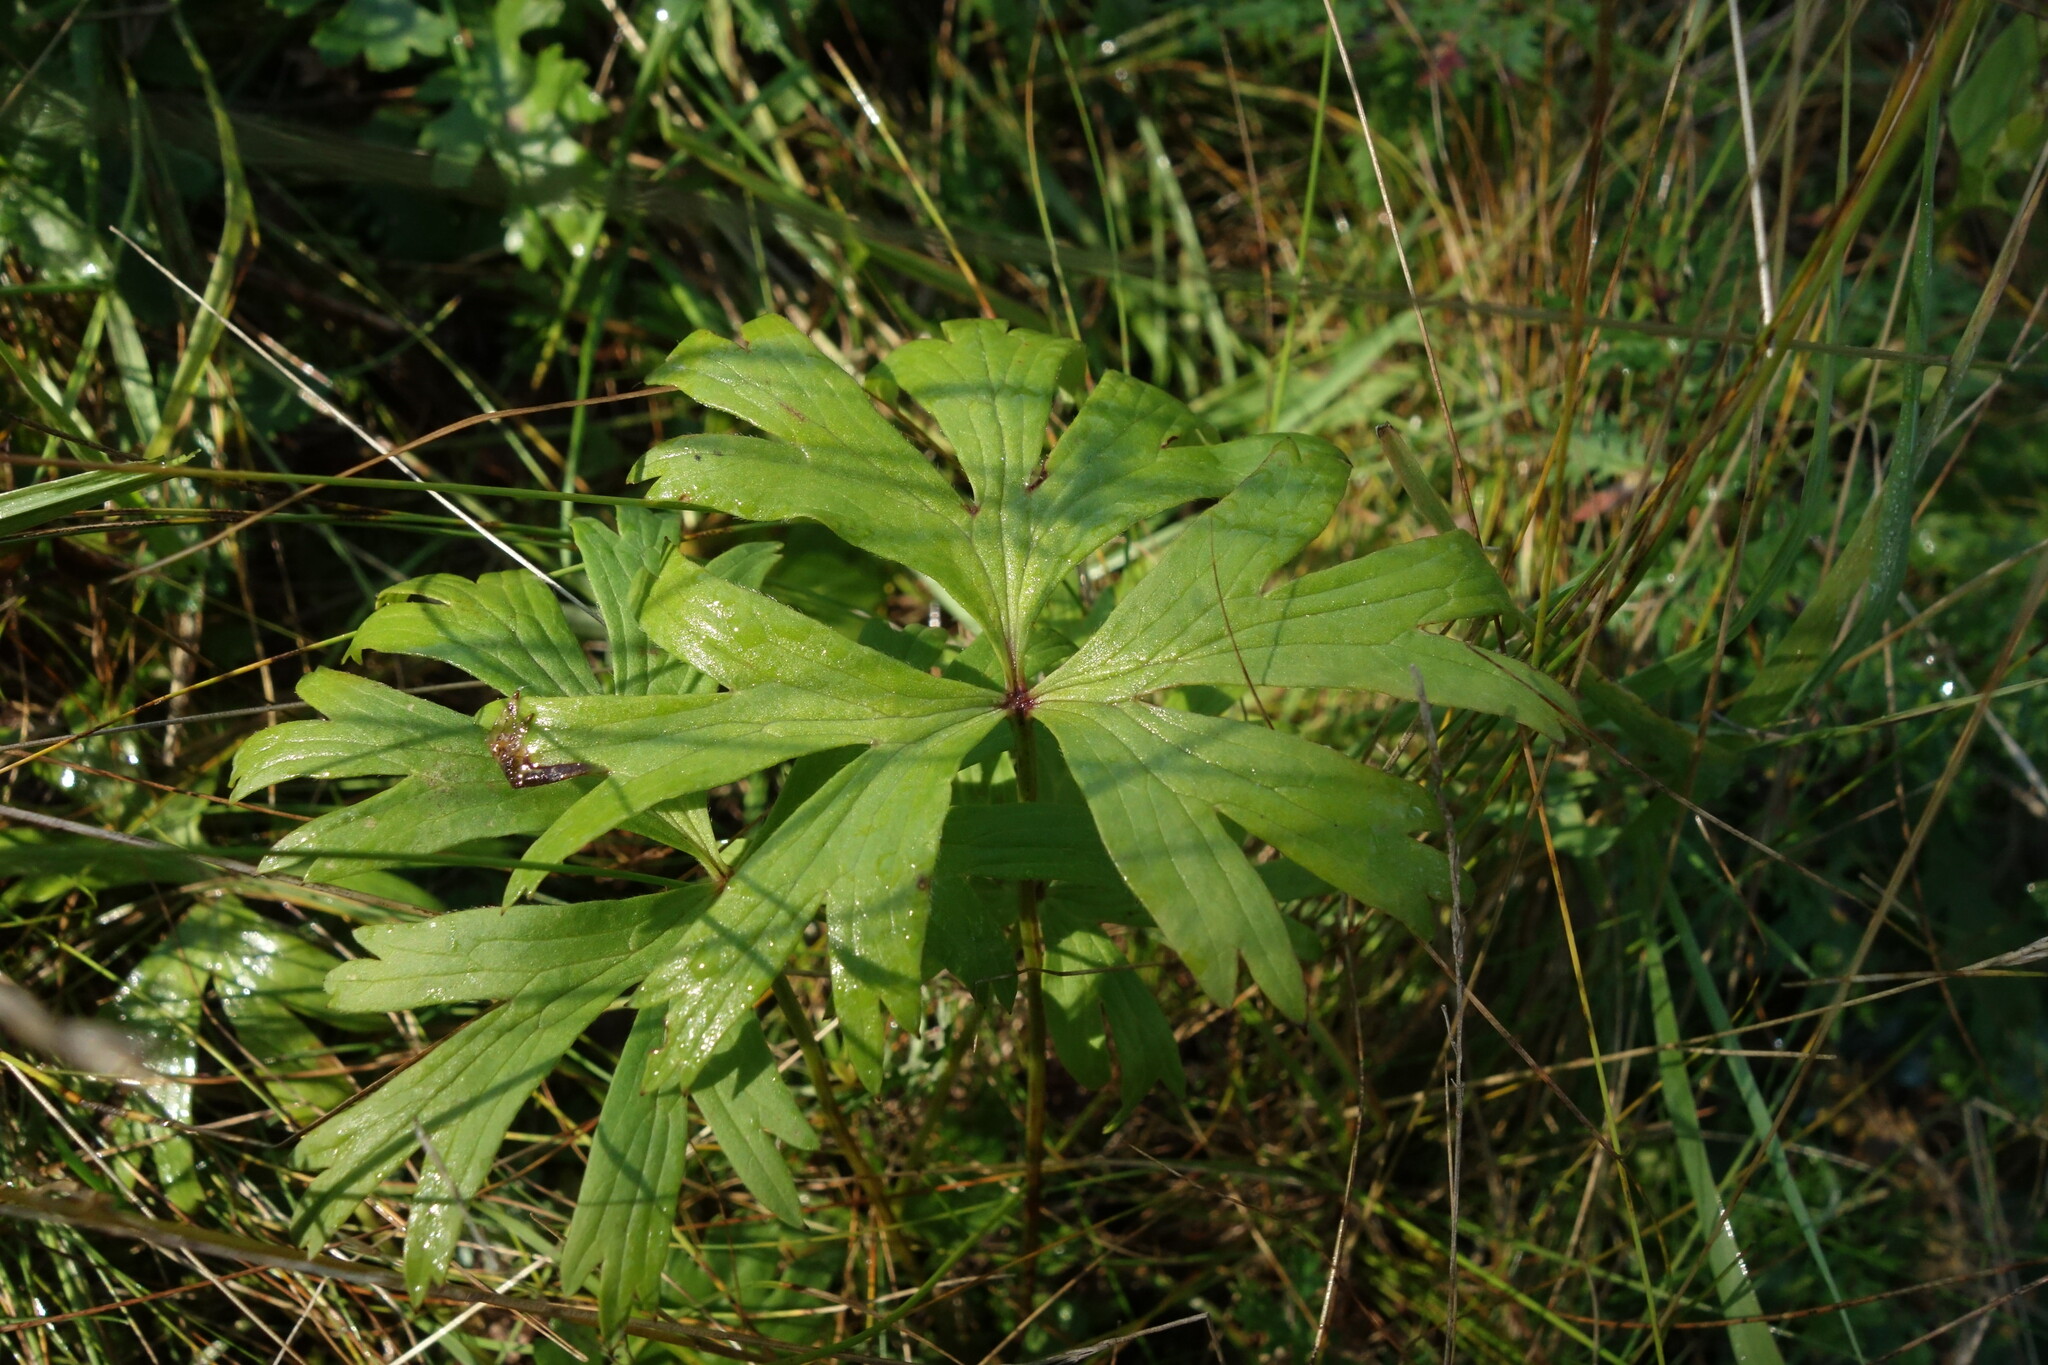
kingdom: Plantae
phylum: Tracheophyta
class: Magnoliopsida
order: Ranunculales
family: Ranunculaceae
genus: Pulsatilla
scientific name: Pulsatilla patens
